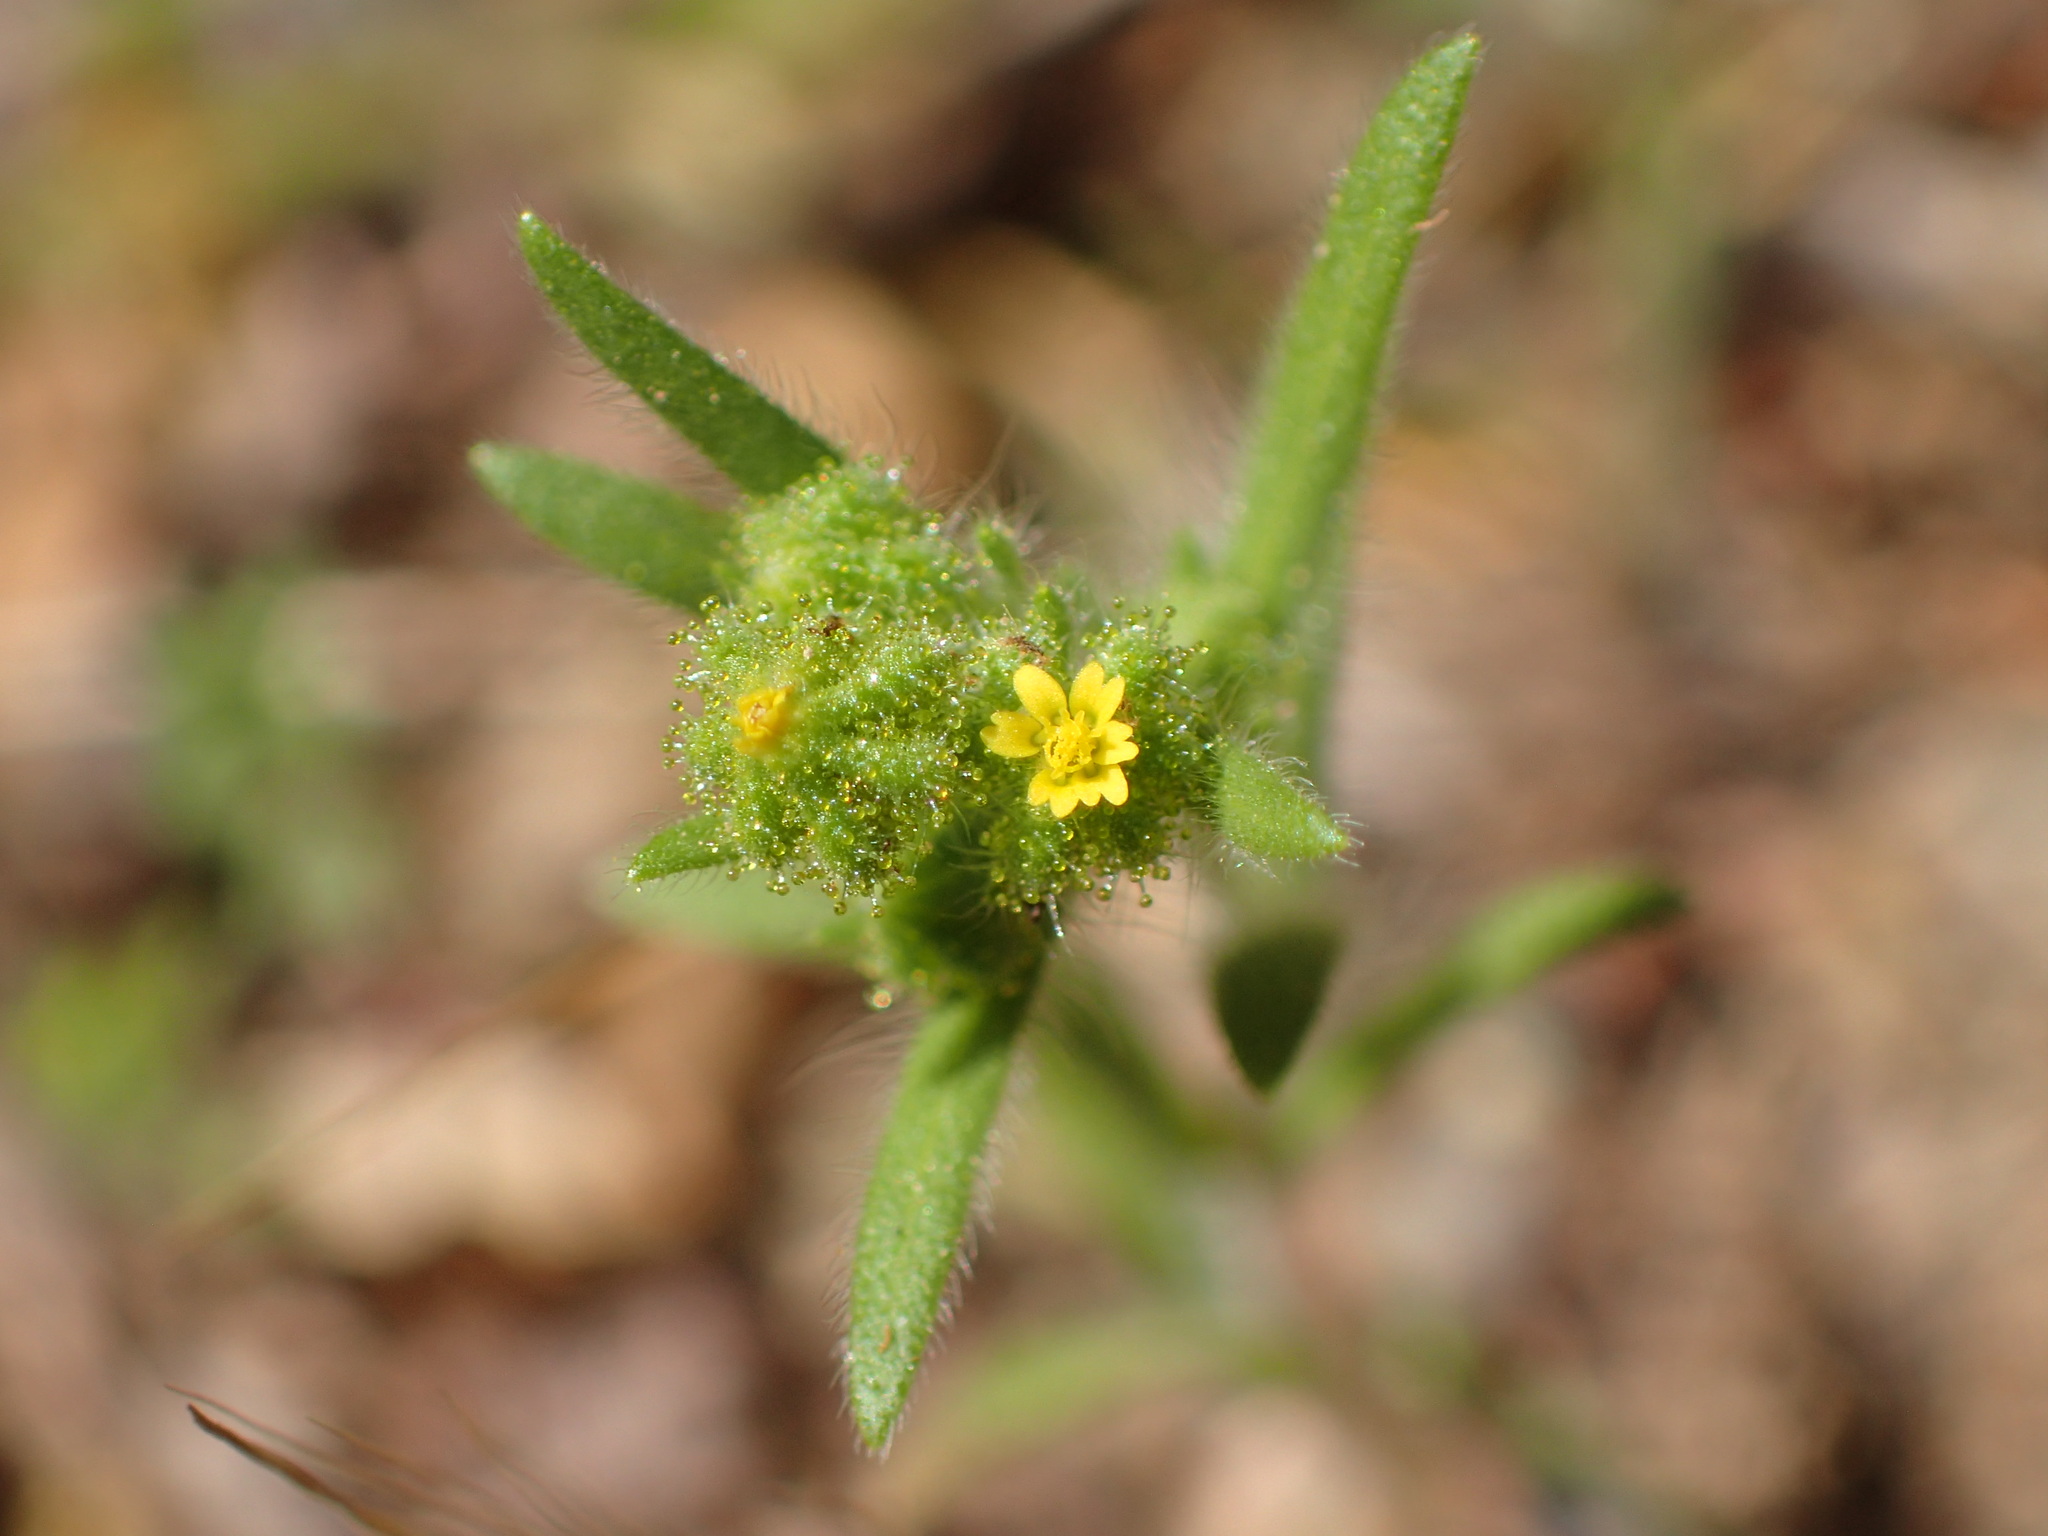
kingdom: Plantae
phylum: Tracheophyta
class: Magnoliopsida
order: Asterales
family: Asteraceae
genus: Madia
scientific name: Madia exigua
